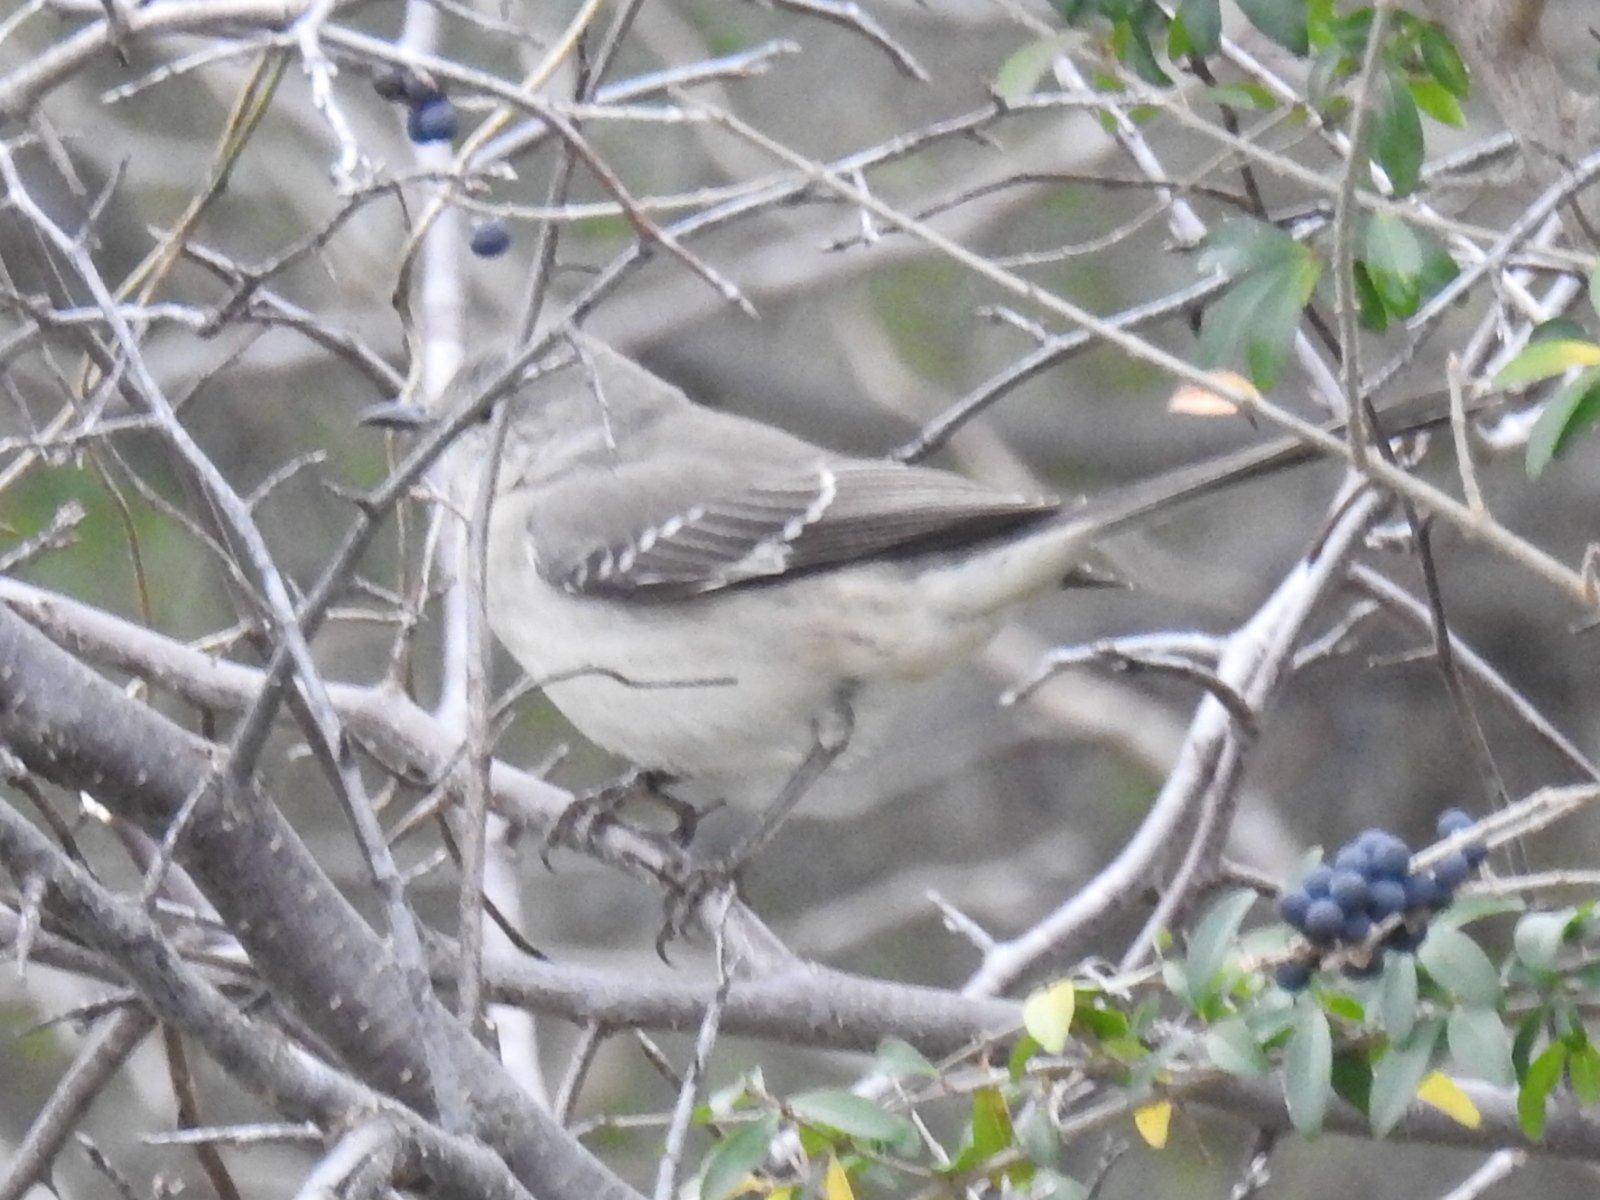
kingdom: Animalia
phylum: Chordata
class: Aves
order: Passeriformes
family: Mimidae
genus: Mimus
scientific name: Mimus polyglottos
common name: Northern mockingbird
